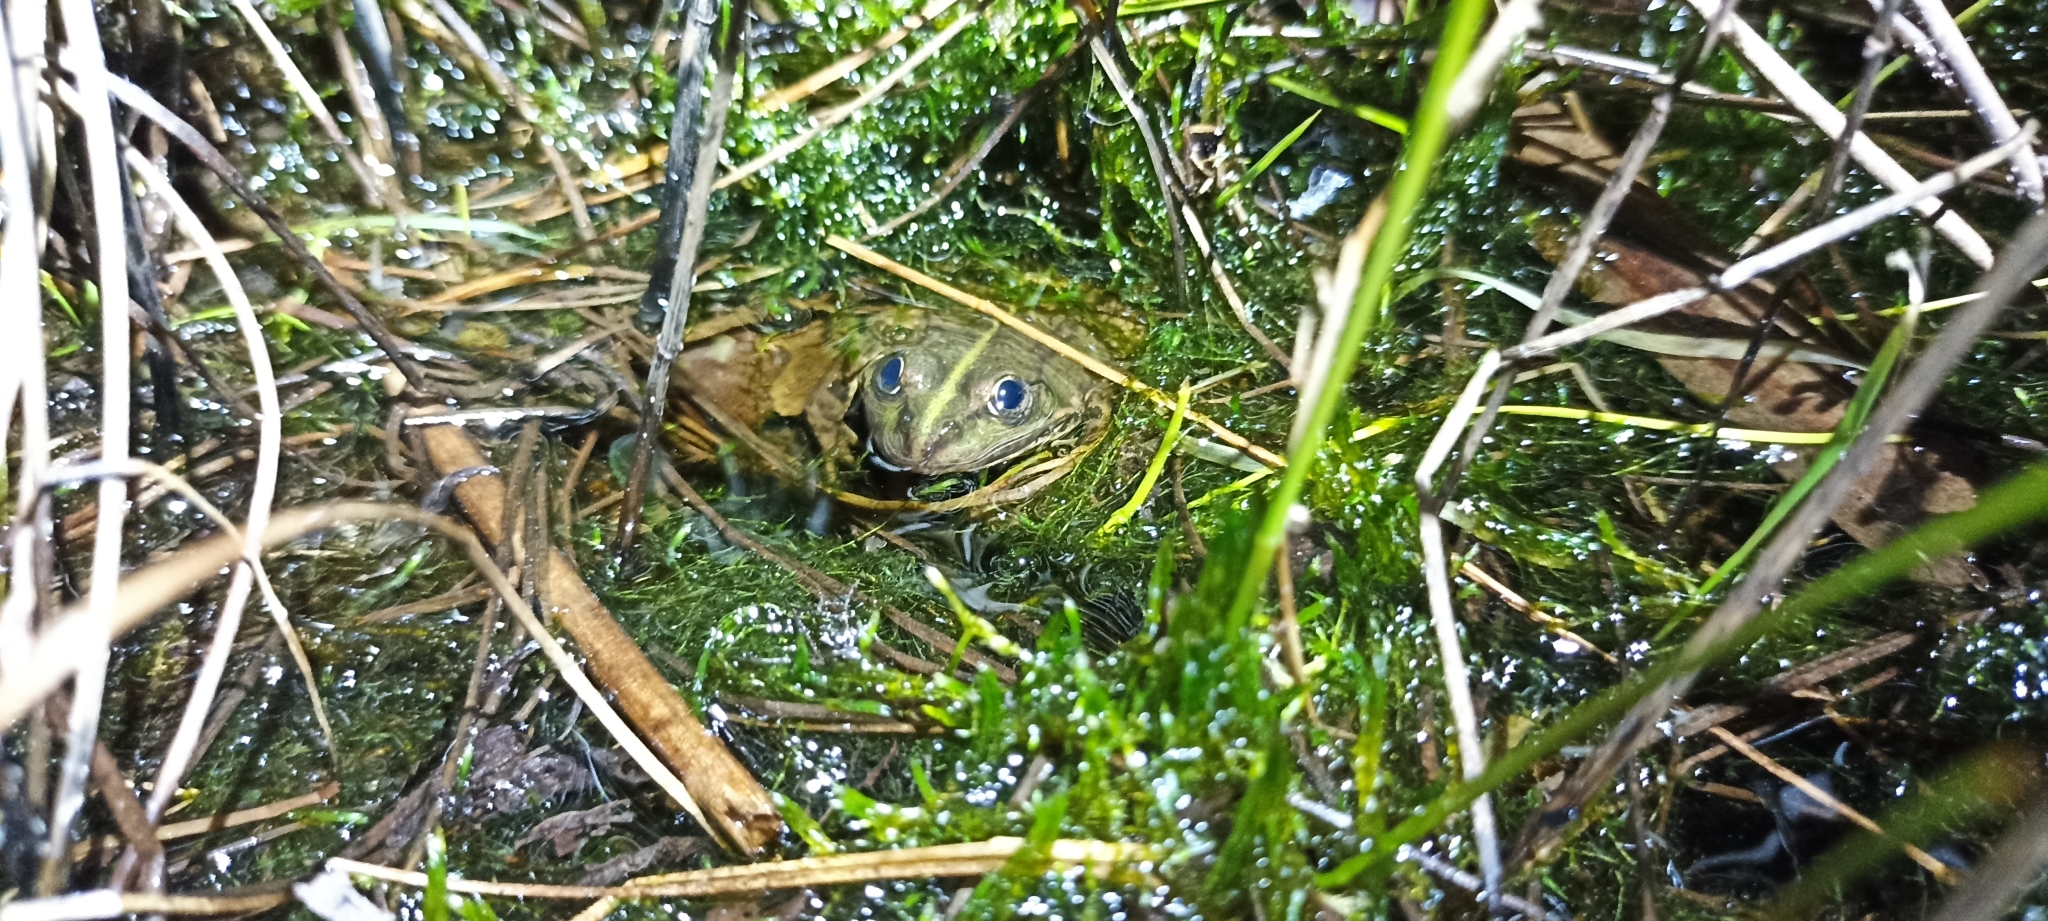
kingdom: Animalia
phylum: Chordata
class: Amphibia
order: Anura
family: Ranidae
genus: Pelophylax
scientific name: Pelophylax
